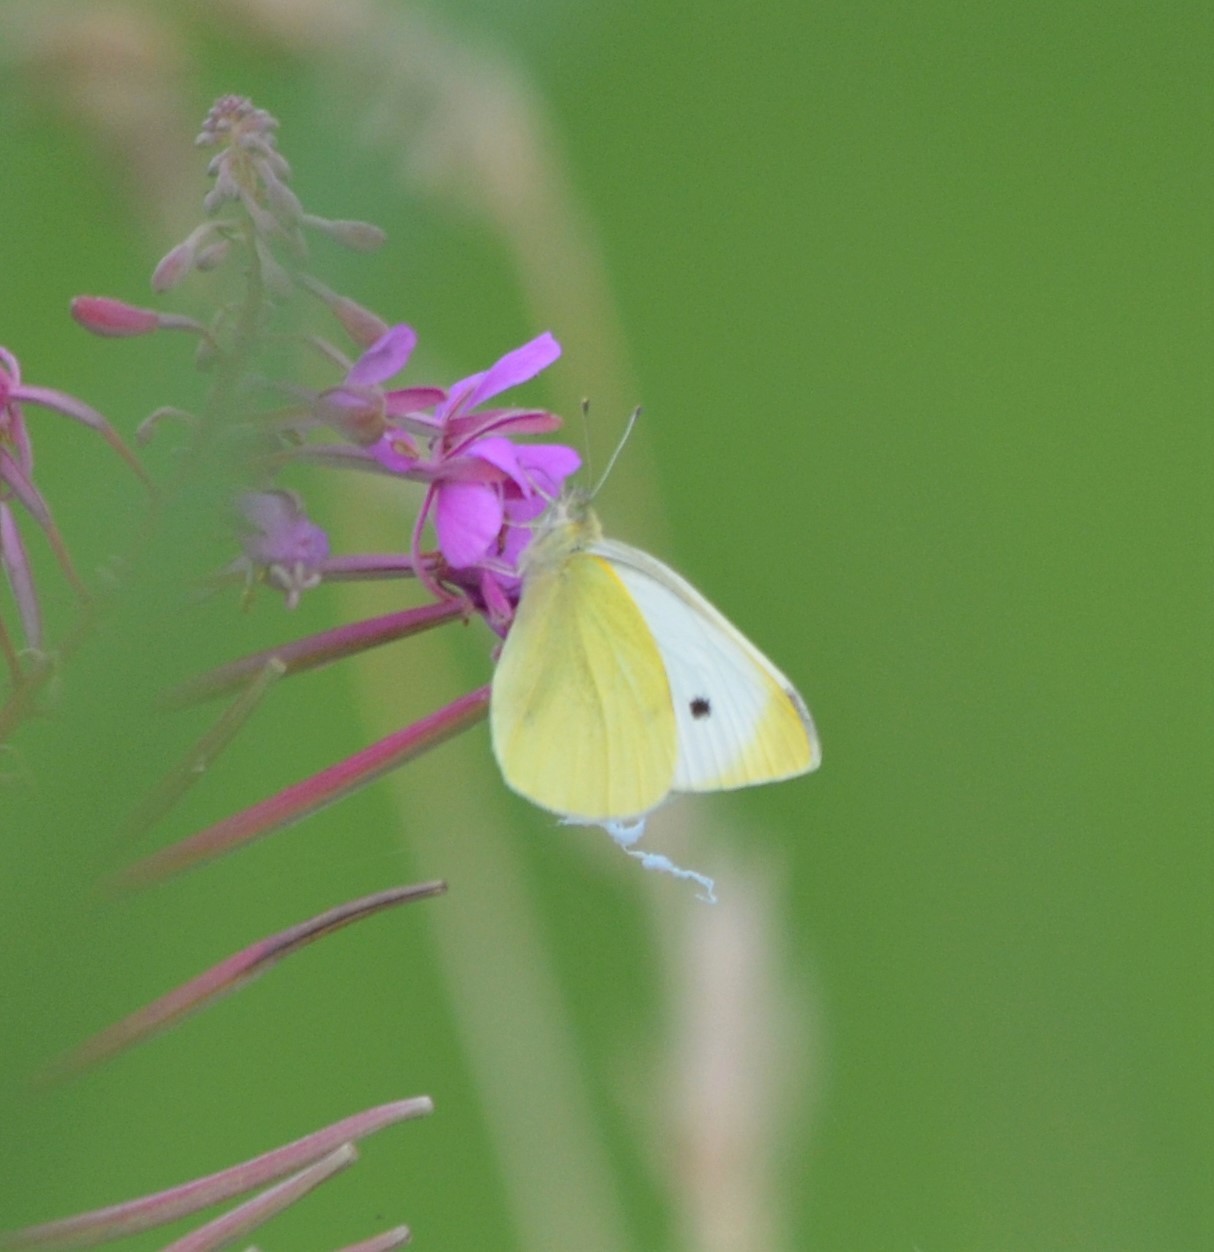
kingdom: Animalia
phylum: Arthropoda
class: Insecta
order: Lepidoptera
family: Pieridae
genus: Pieris
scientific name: Pieris rapae
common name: Small white
